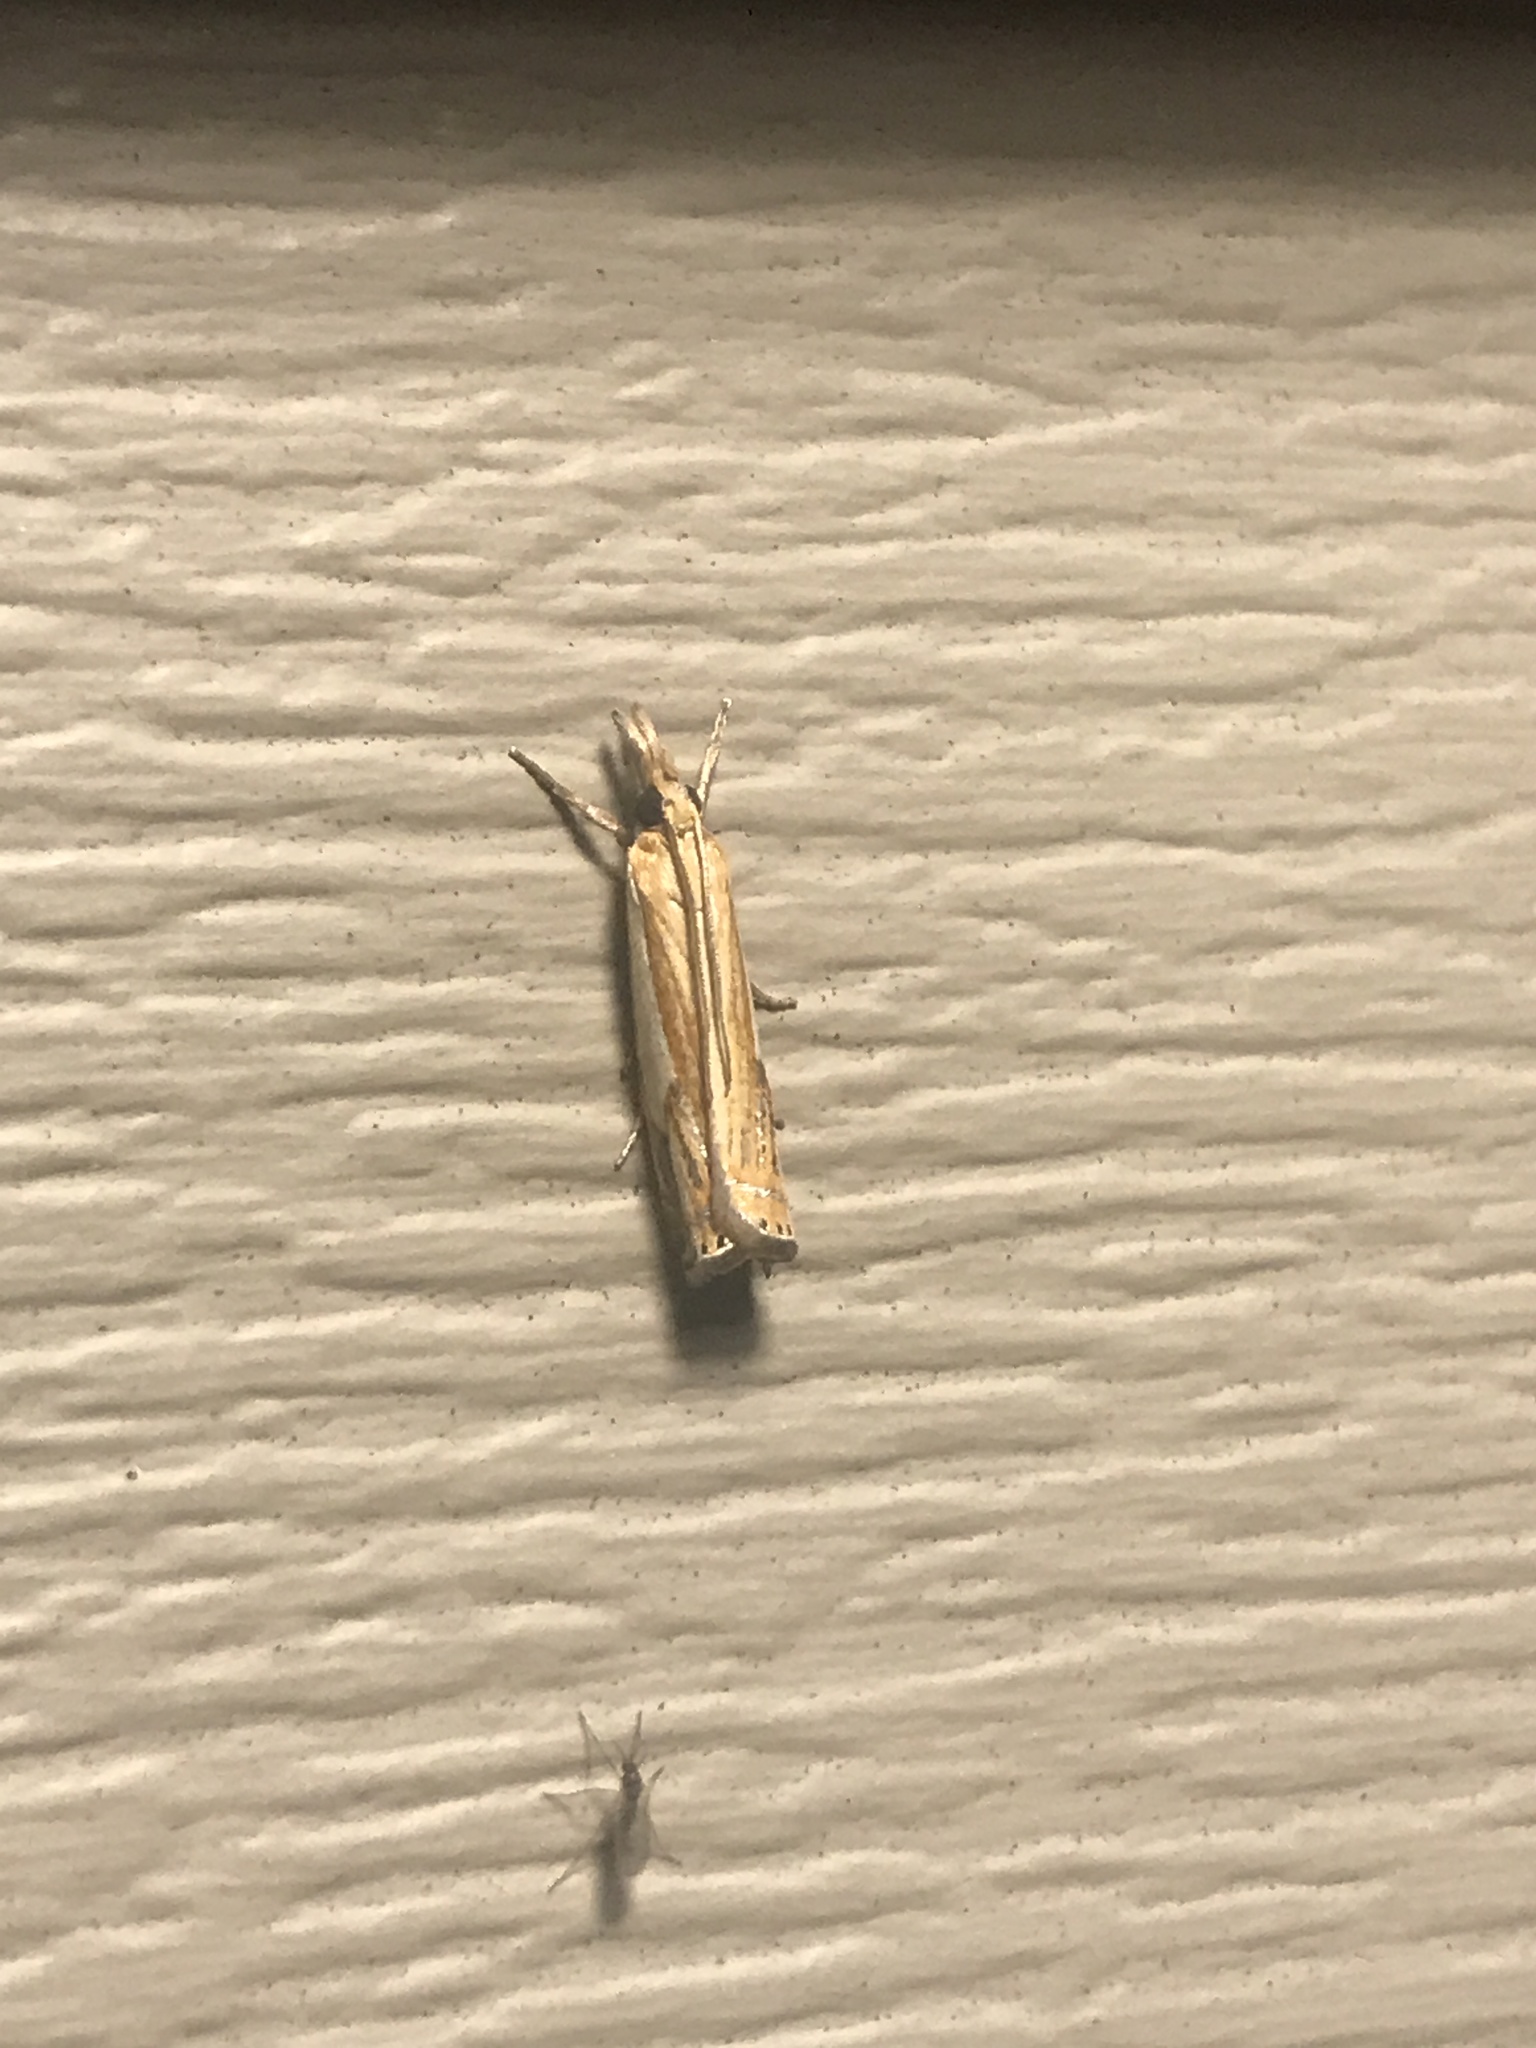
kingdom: Animalia
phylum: Arthropoda
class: Insecta
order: Lepidoptera
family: Crambidae
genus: Crambus
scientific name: Crambus agitatellus
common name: Double-banded grass-veneer
